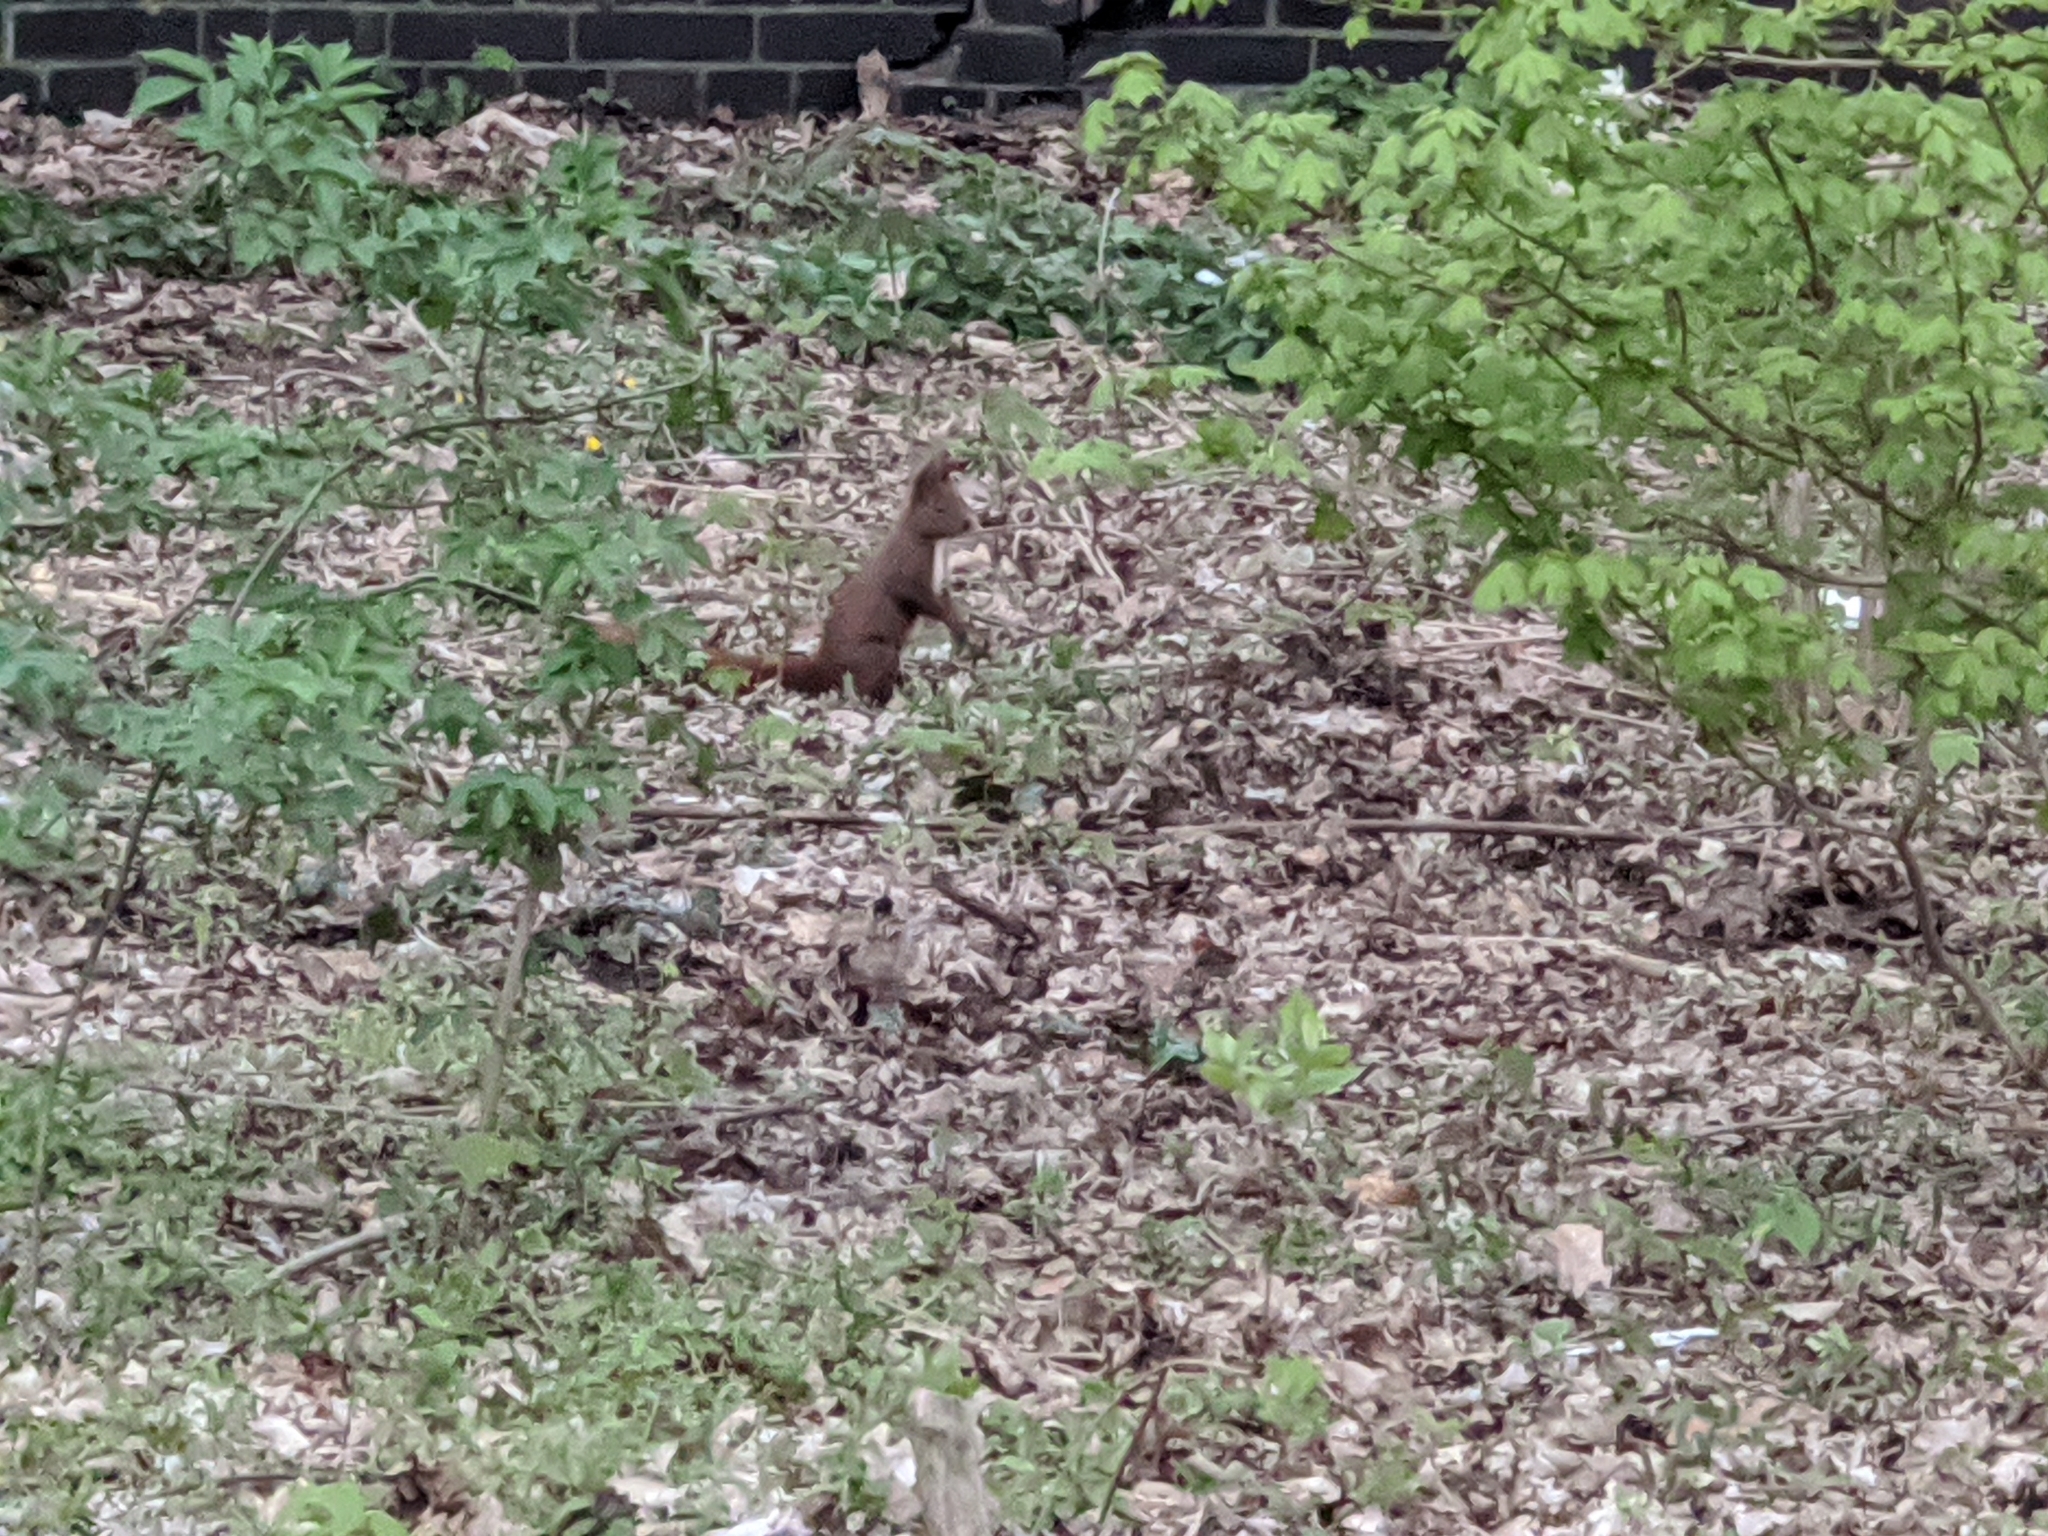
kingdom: Animalia
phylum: Chordata
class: Mammalia
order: Rodentia
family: Sciuridae
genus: Sciurus
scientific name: Sciurus vulgaris
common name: Eurasian red squirrel
